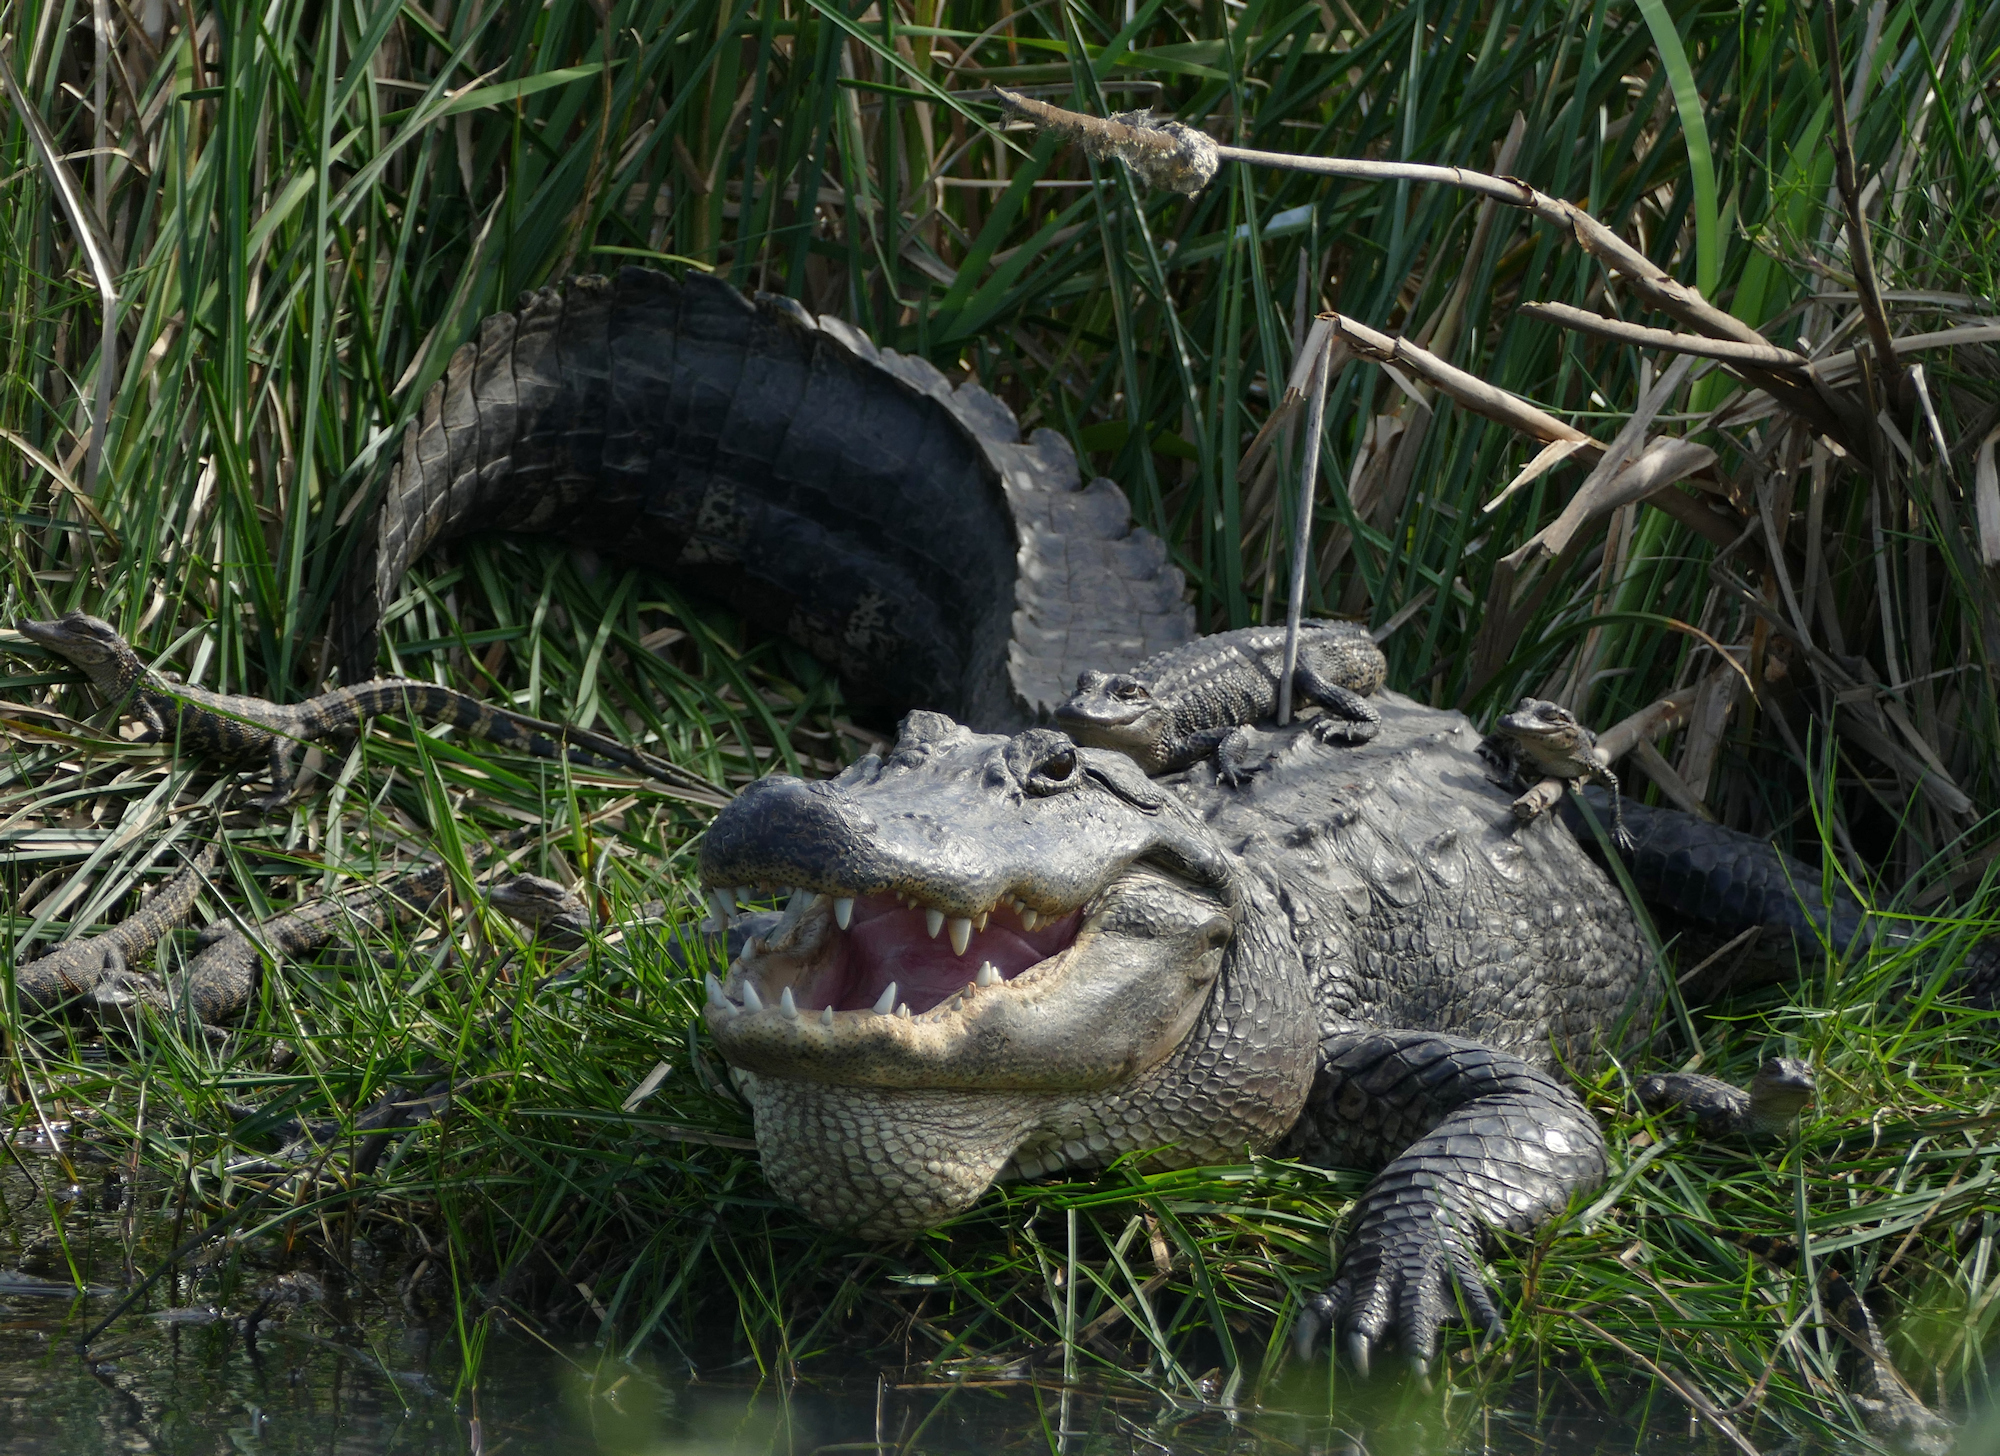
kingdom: Animalia
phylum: Chordata
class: Crocodylia
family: Alligatoridae
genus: Alligator
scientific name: Alligator mississippiensis
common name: American alligator
